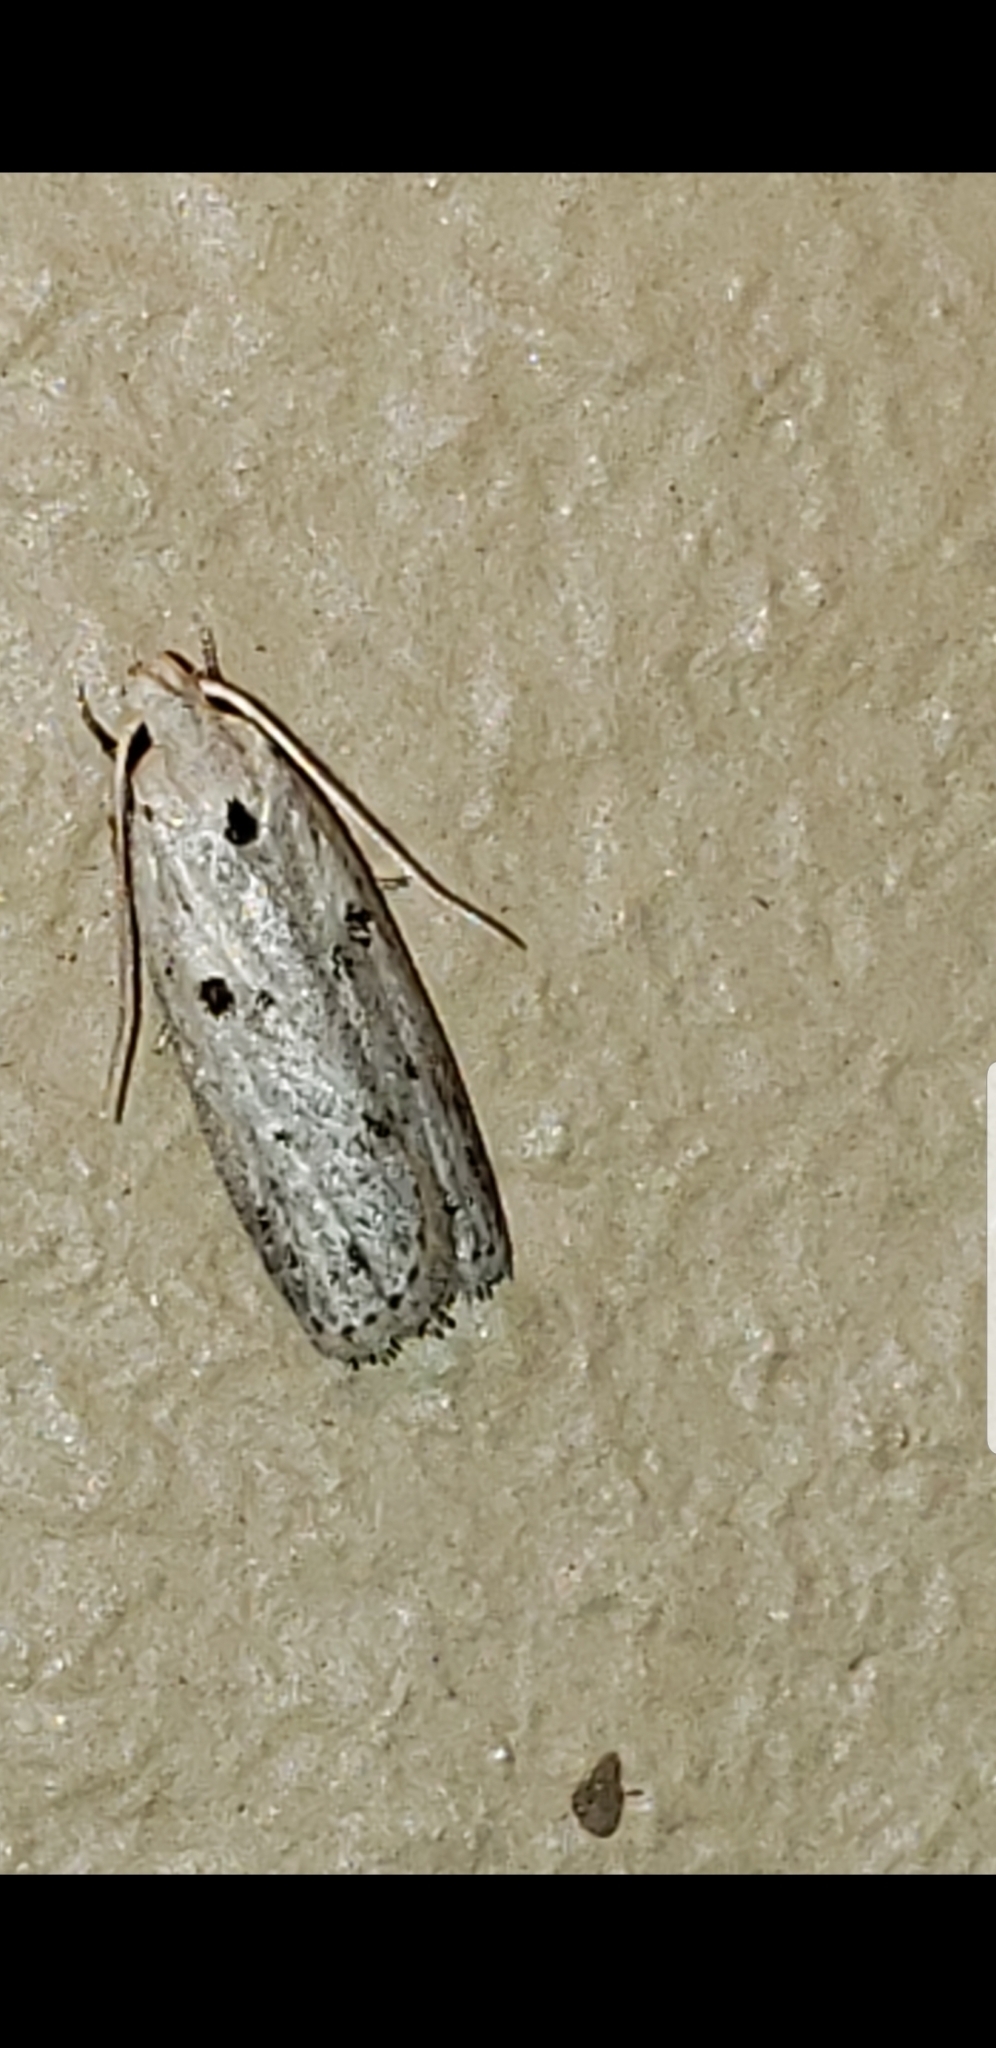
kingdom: Animalia
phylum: Arthropoda
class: Insecta
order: Lepidoptera
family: Peleopodidae
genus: Scythropiodes
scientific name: Scythropiodes issikii
